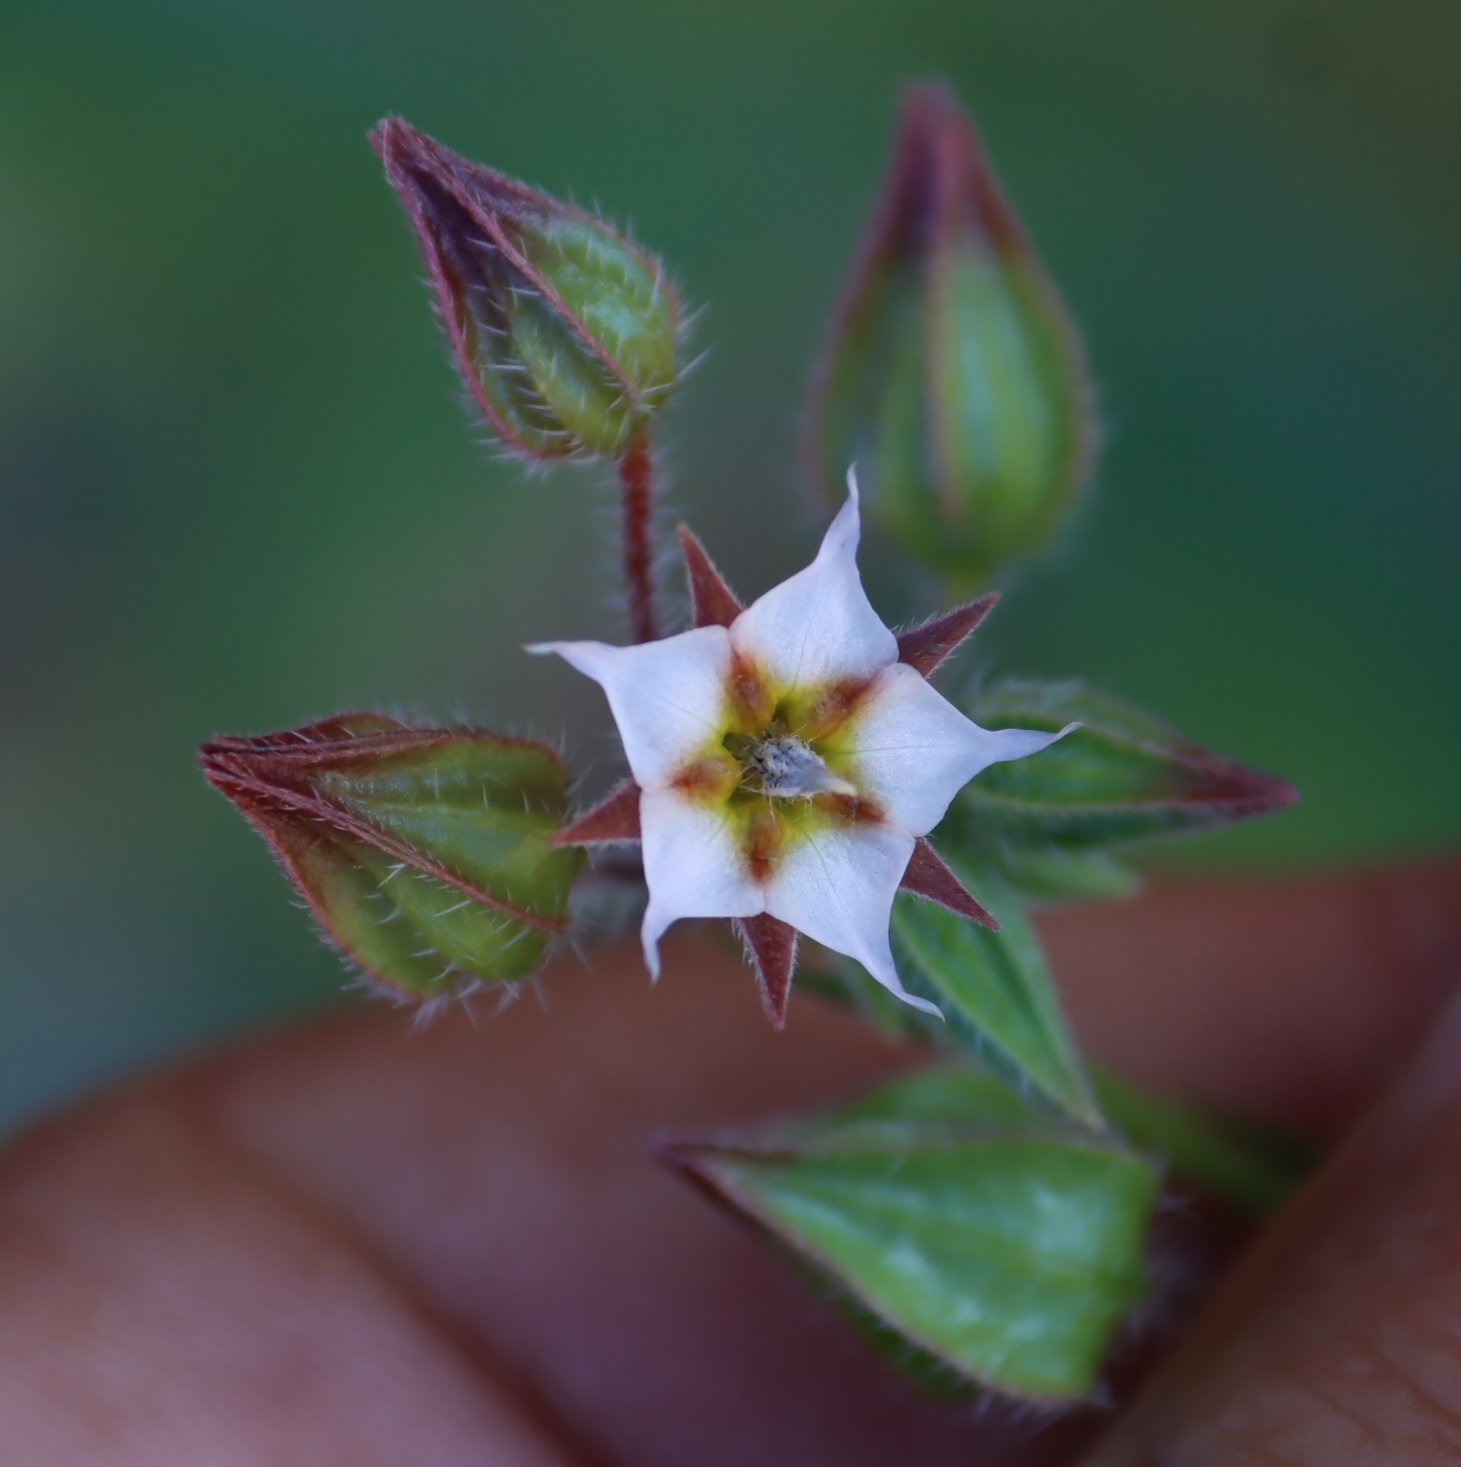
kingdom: Plantae
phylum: Tracheophyta
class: Magnoliopsida
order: Boraginales
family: Boraginaceae
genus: Trichodesma
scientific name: Trichodesma africanum
